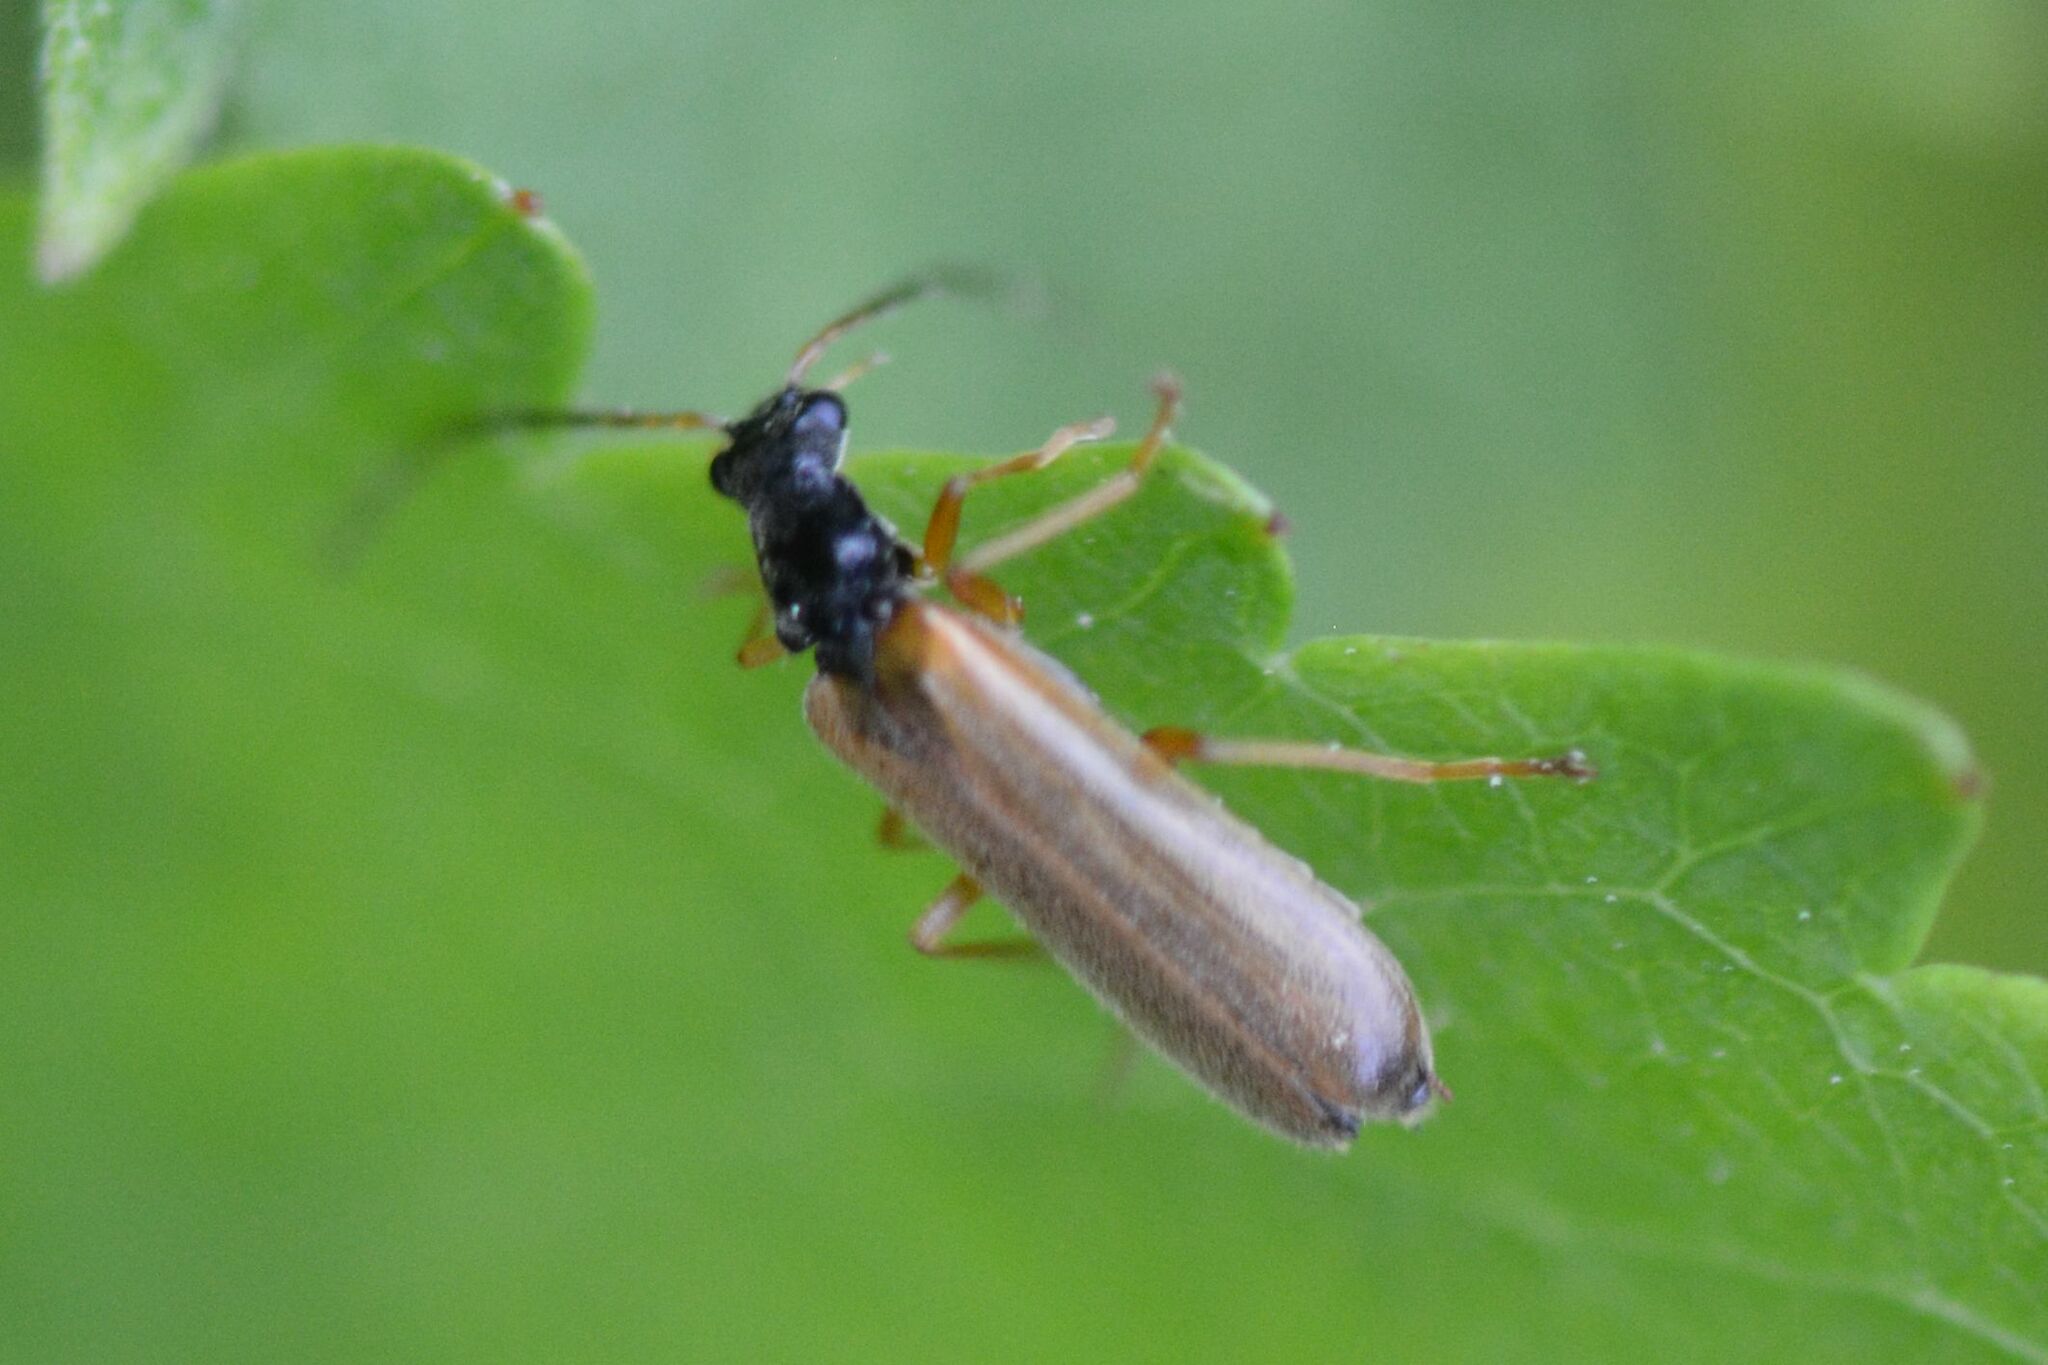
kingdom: Animalia
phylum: Arthropoda
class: Insecta
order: Coleoptera
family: Cantharidae
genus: Rhagonycha
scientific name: Rhagonycha lignosa
